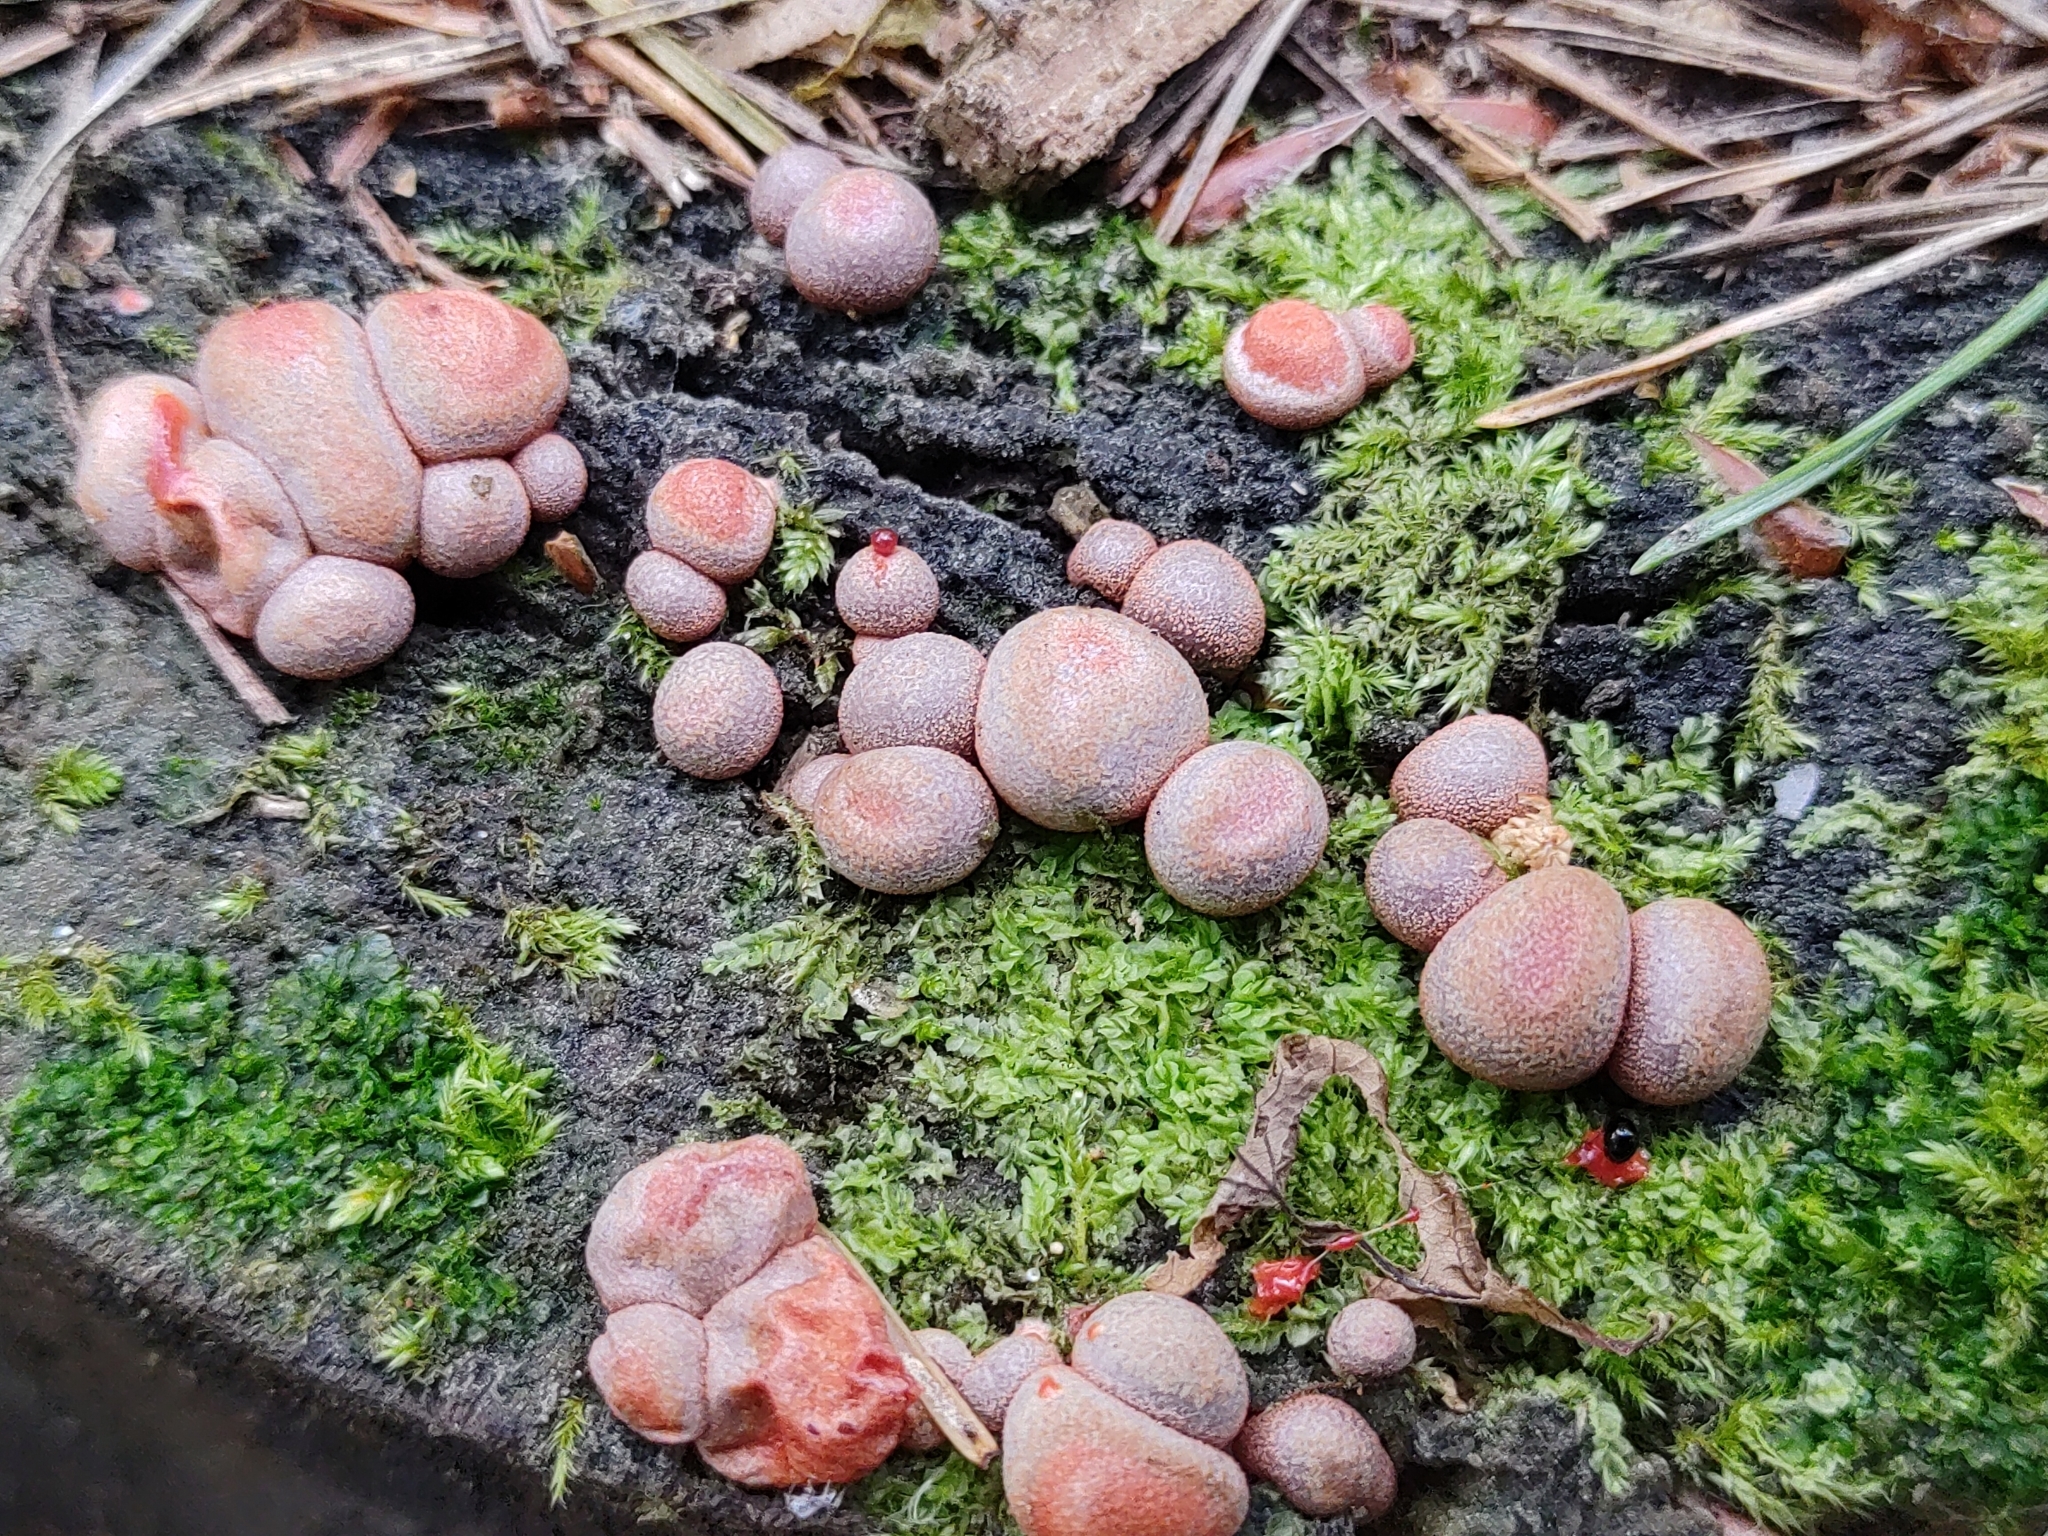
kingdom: Protozoa
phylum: Mycetozoa
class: Myxomycetes
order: Cribrariales
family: Tubiferaceae
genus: Lycogala
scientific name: Lycogala epidendrum
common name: Wolf's milk
